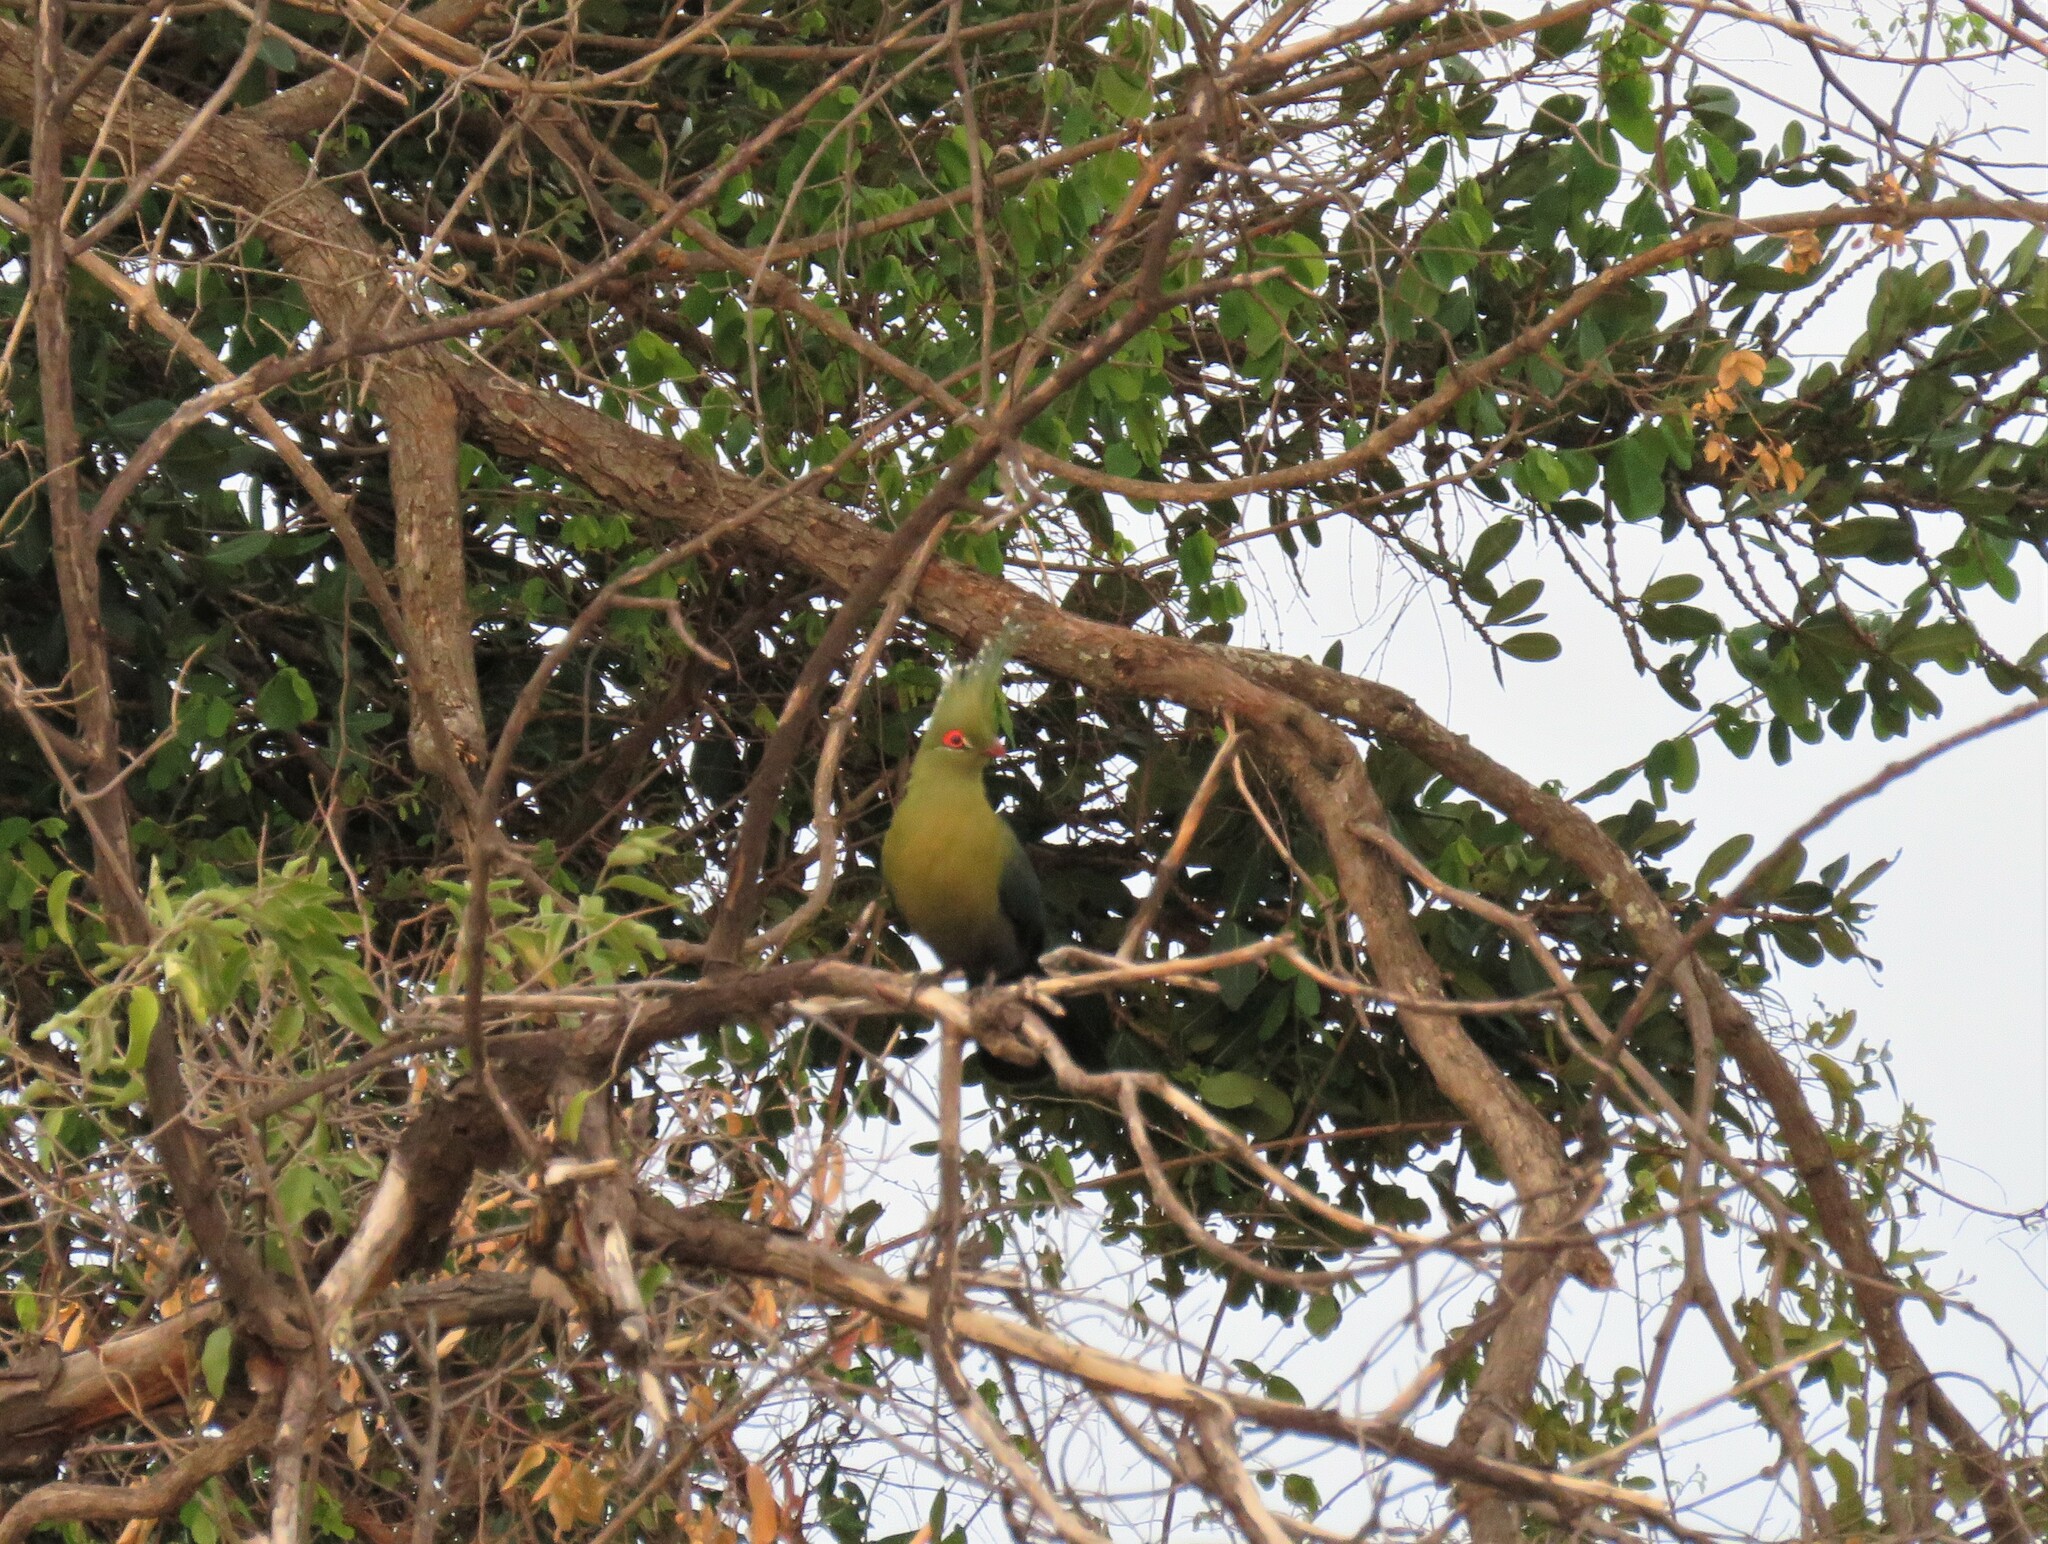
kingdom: Animalia
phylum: Chordata
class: Aves
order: Musophagiformes
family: Musophagidae
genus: Tauraco
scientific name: Tauraco schalowi
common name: Schalow's turaco
